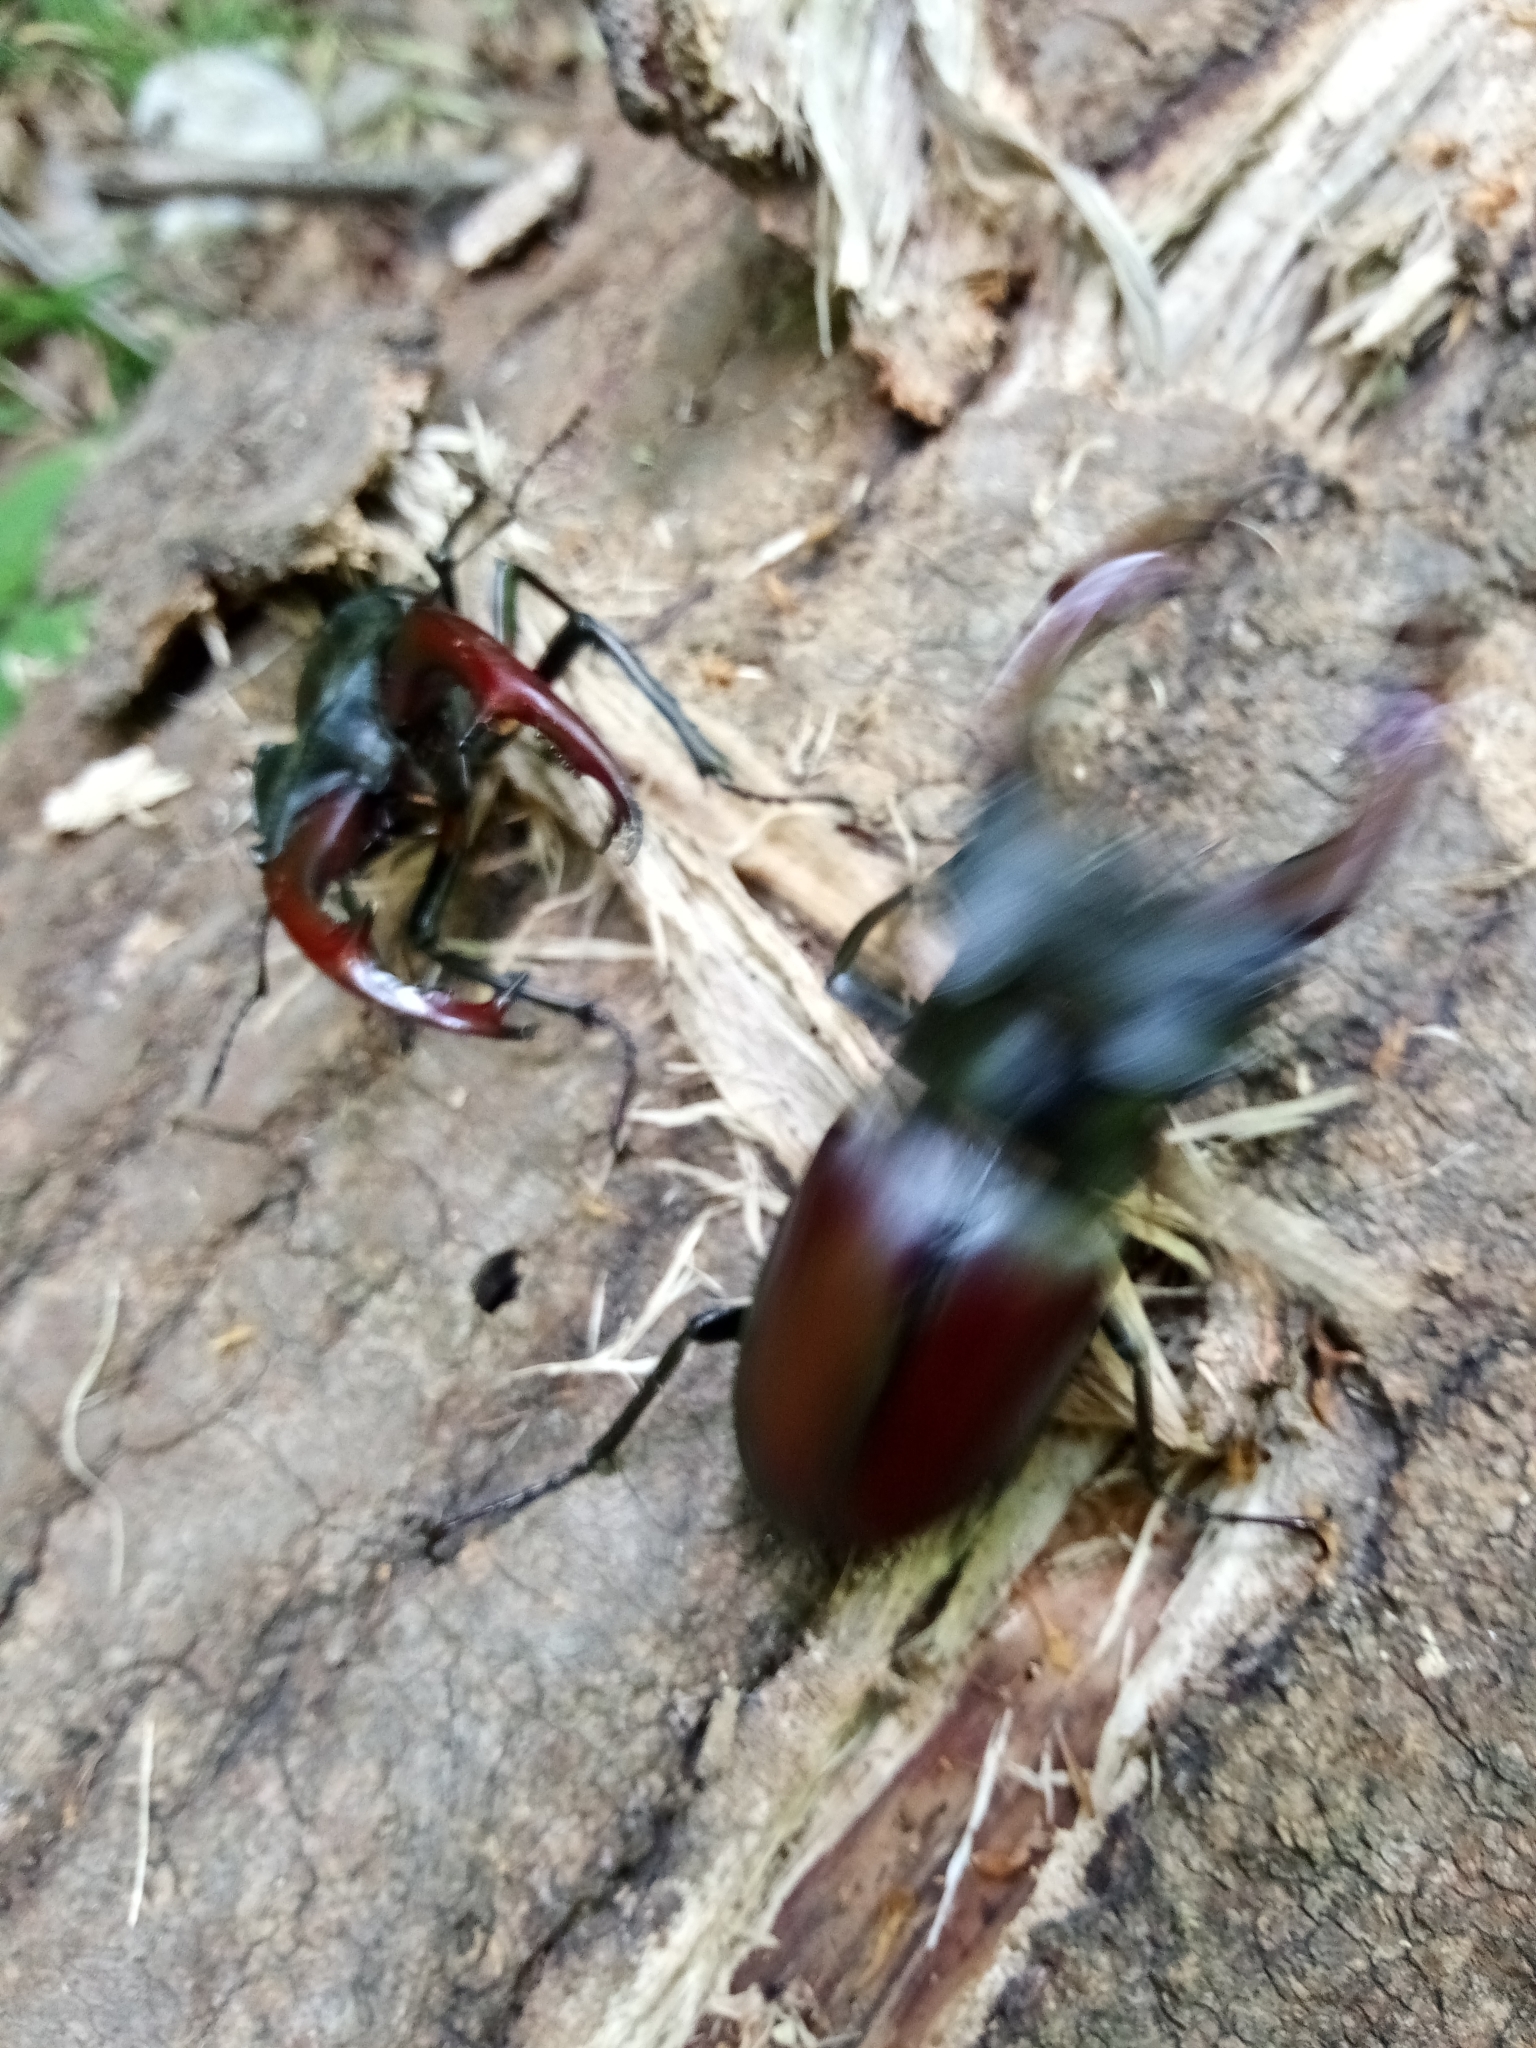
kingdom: Animalia
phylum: Arthropoda
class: Insecta
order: Coleoptera
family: Lucanidae
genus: Lucanus
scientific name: Lucanus cervus
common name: Stag beetle
